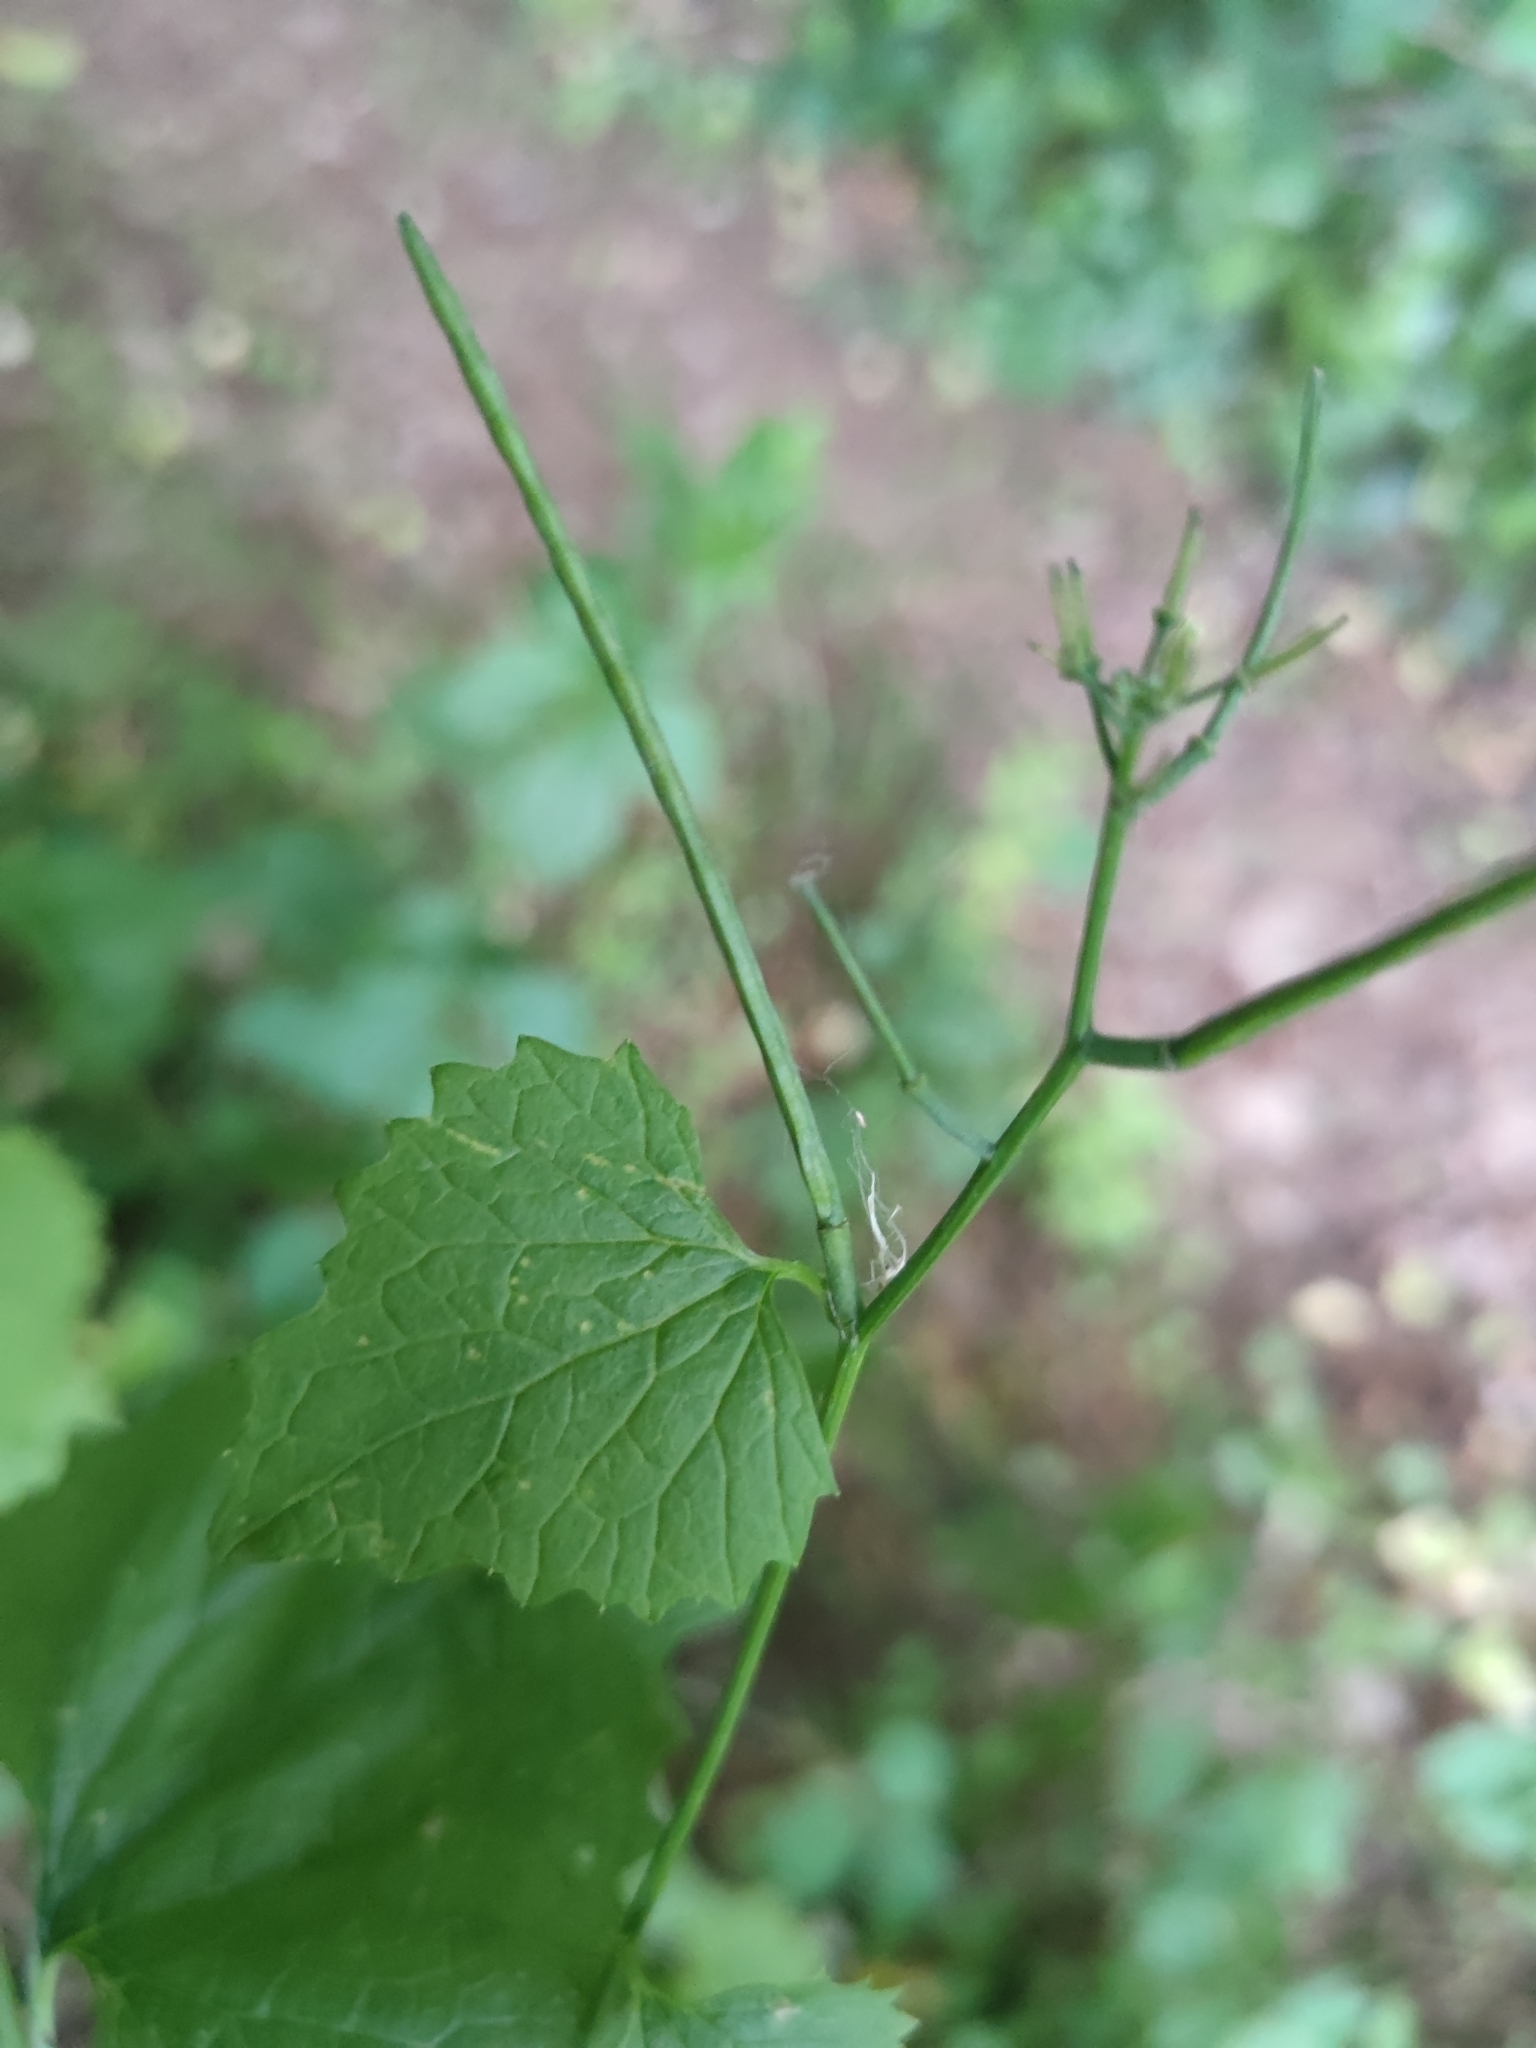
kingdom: Plantae
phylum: Tracheophyta
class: Magnoliopsida
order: Brassicales
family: Brassicaceae
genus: Alliaria
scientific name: Alliaria petiolata
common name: Garlic mustard
